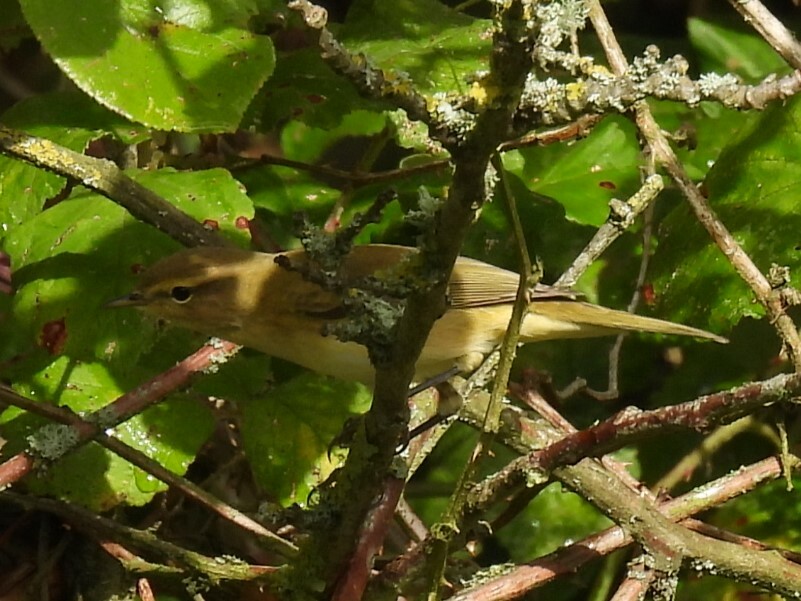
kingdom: Animalia
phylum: Chordata
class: Aves
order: Passeriformes
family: Phylloscopidae
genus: Phylloscopus
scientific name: Phylloscopus collybita
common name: Common chiffchaff
